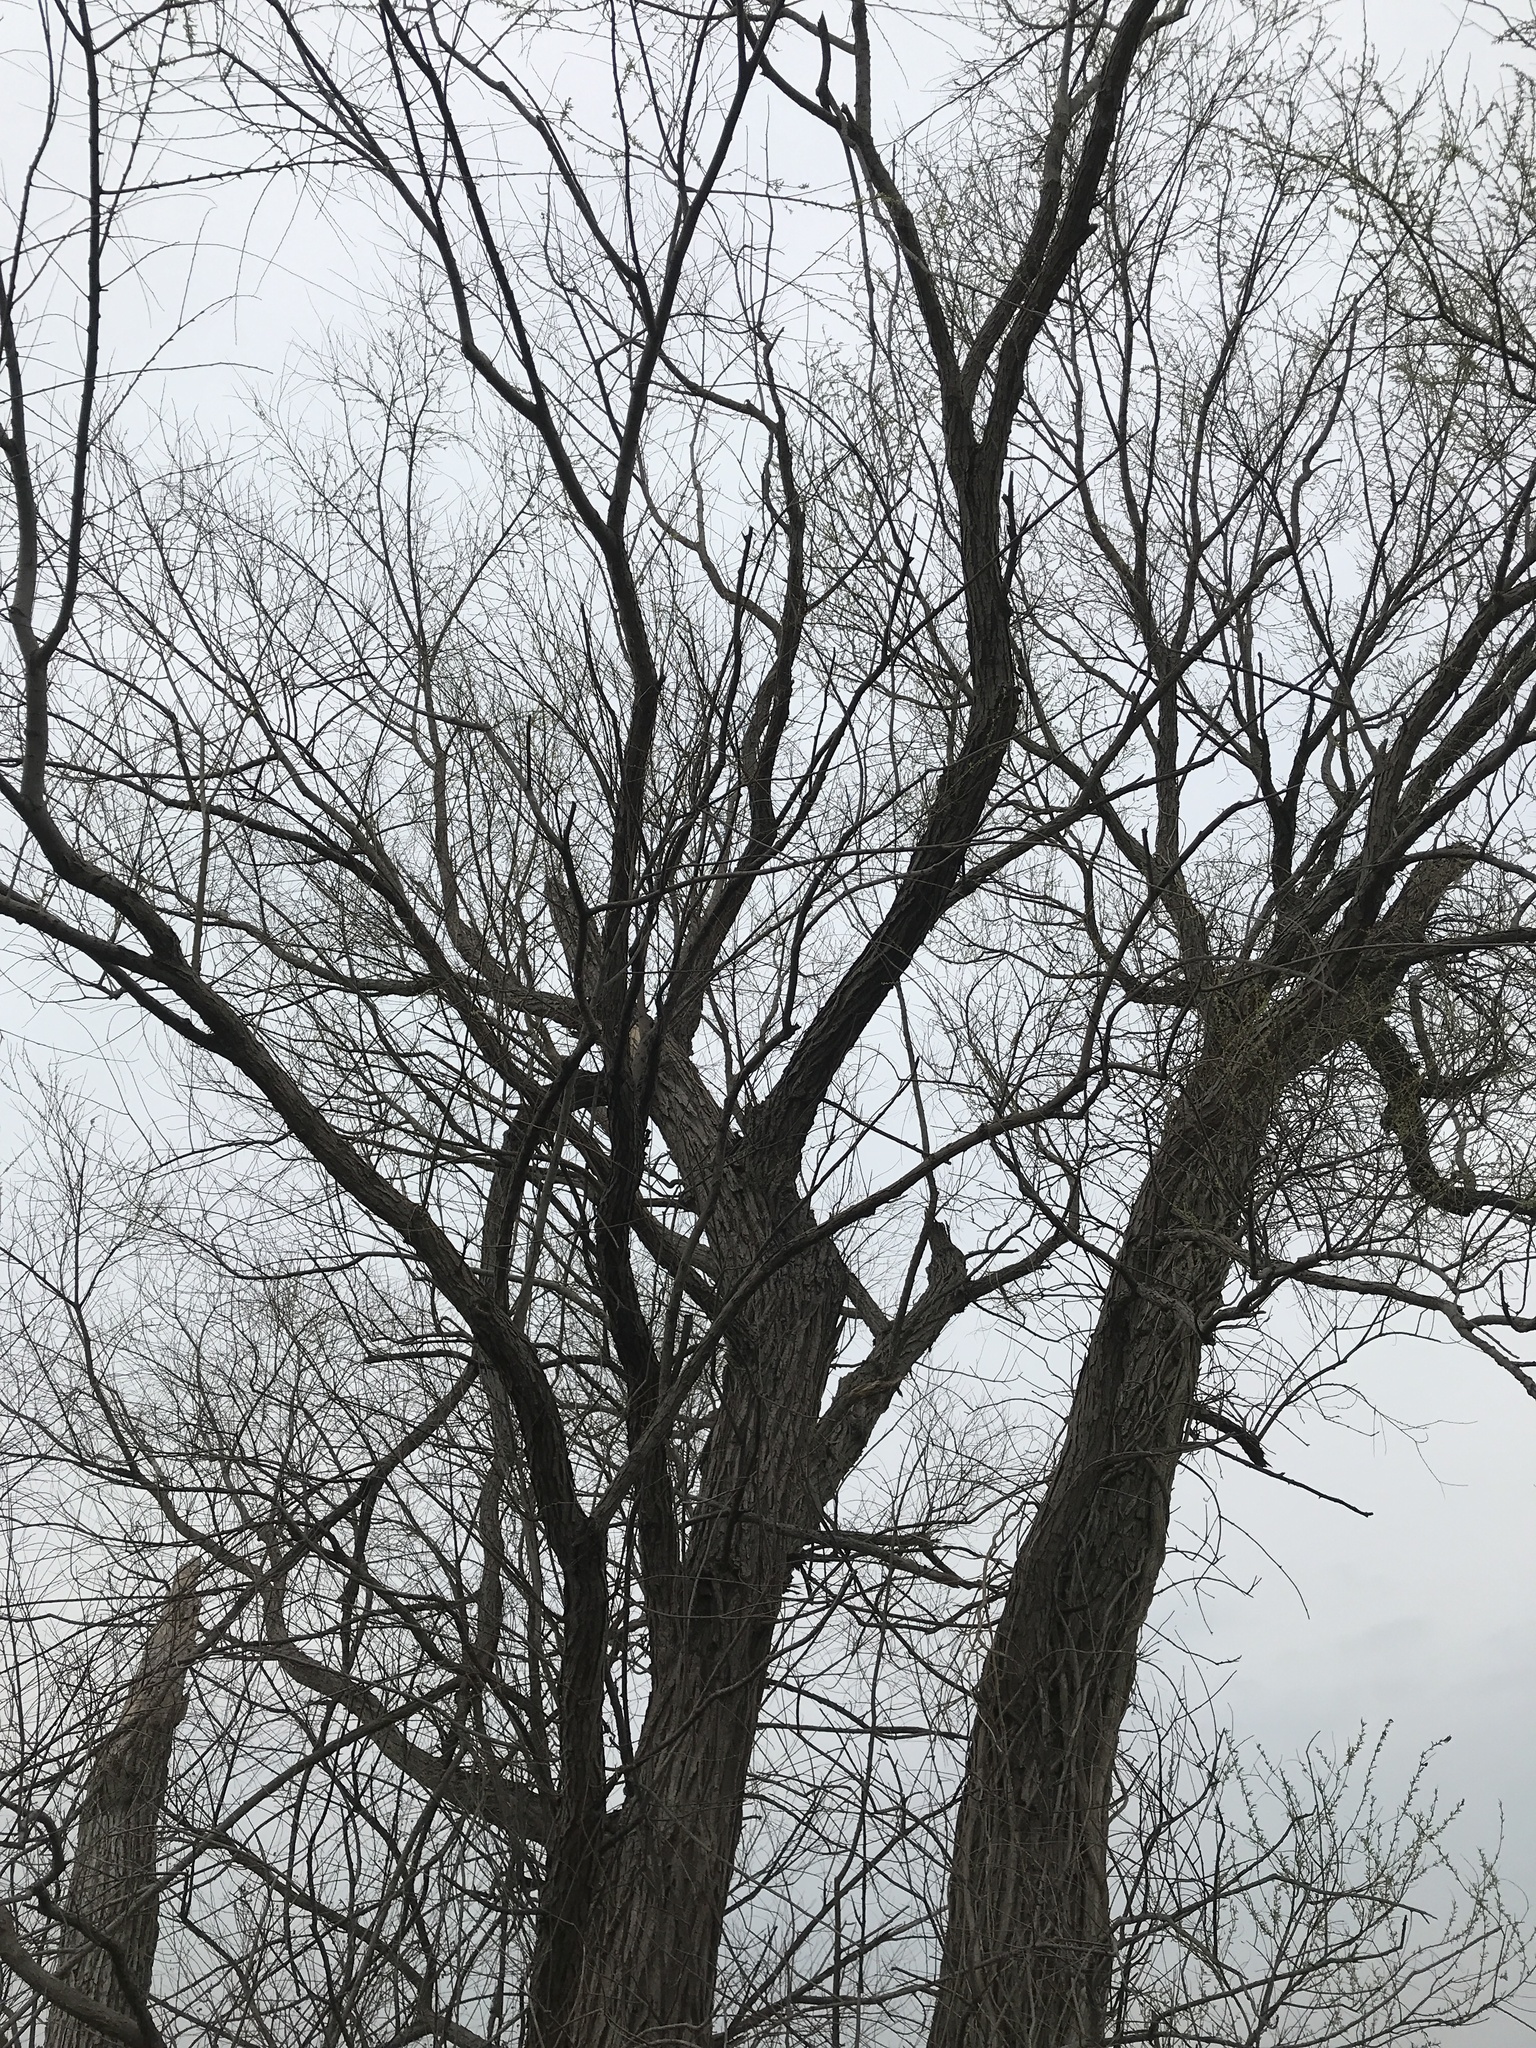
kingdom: Plantae
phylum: Tracheophyta
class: Magnoliopsida
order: Malpighiales
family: Salicaceae
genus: Salix
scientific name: Salix nigra
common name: Black willow
